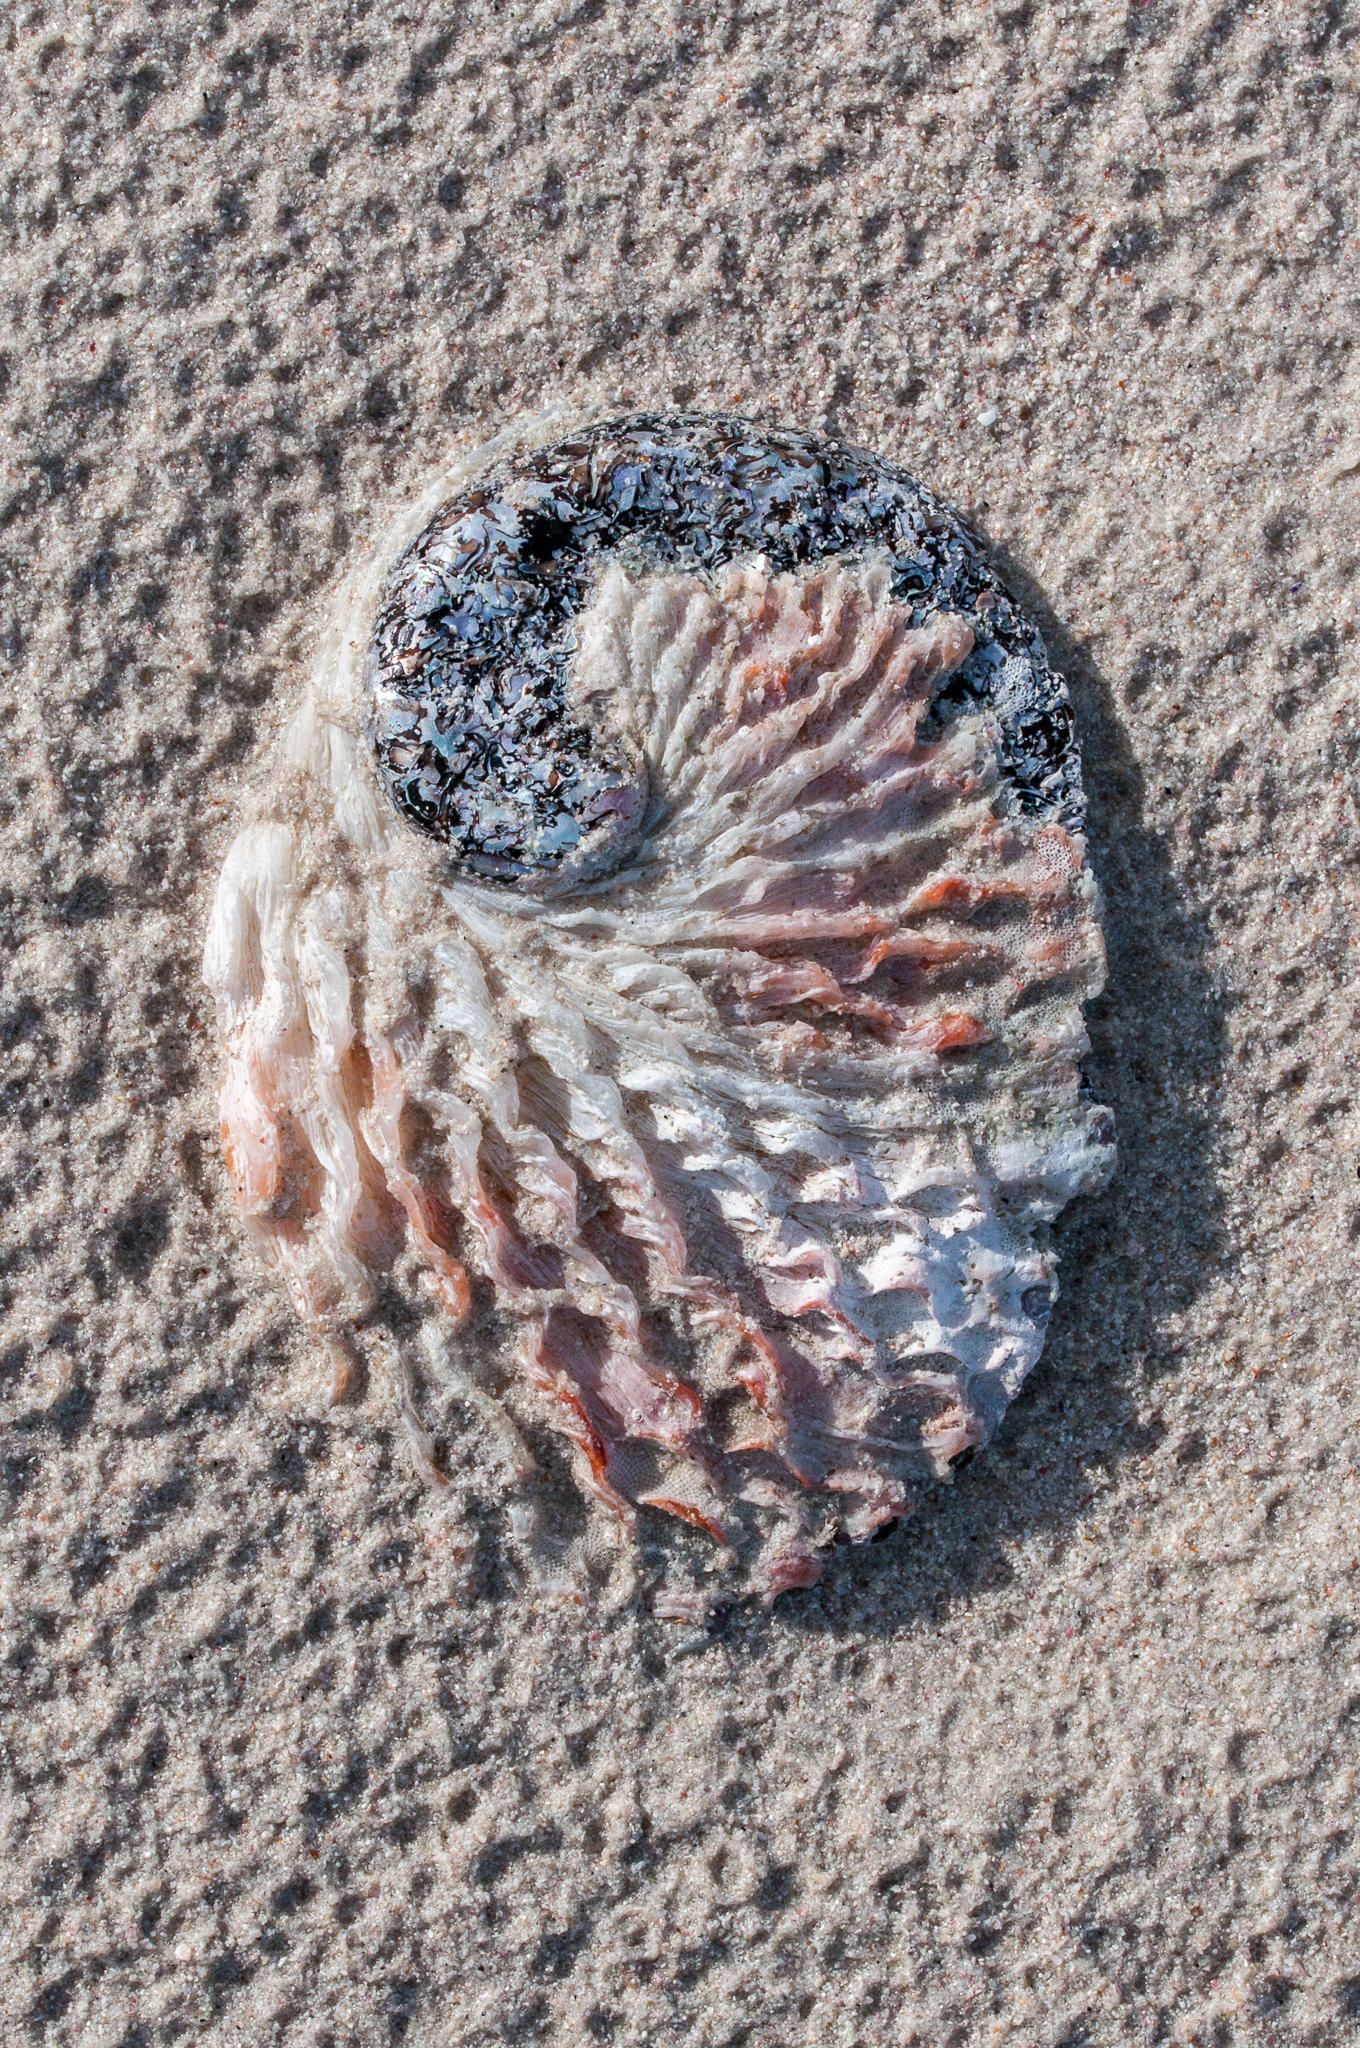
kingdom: Animalia
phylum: Mollusca
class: Gastropoda
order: Lepetellida
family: Haliotidae
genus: Haliotis
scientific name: Haliotis midae
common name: Perlemoen
